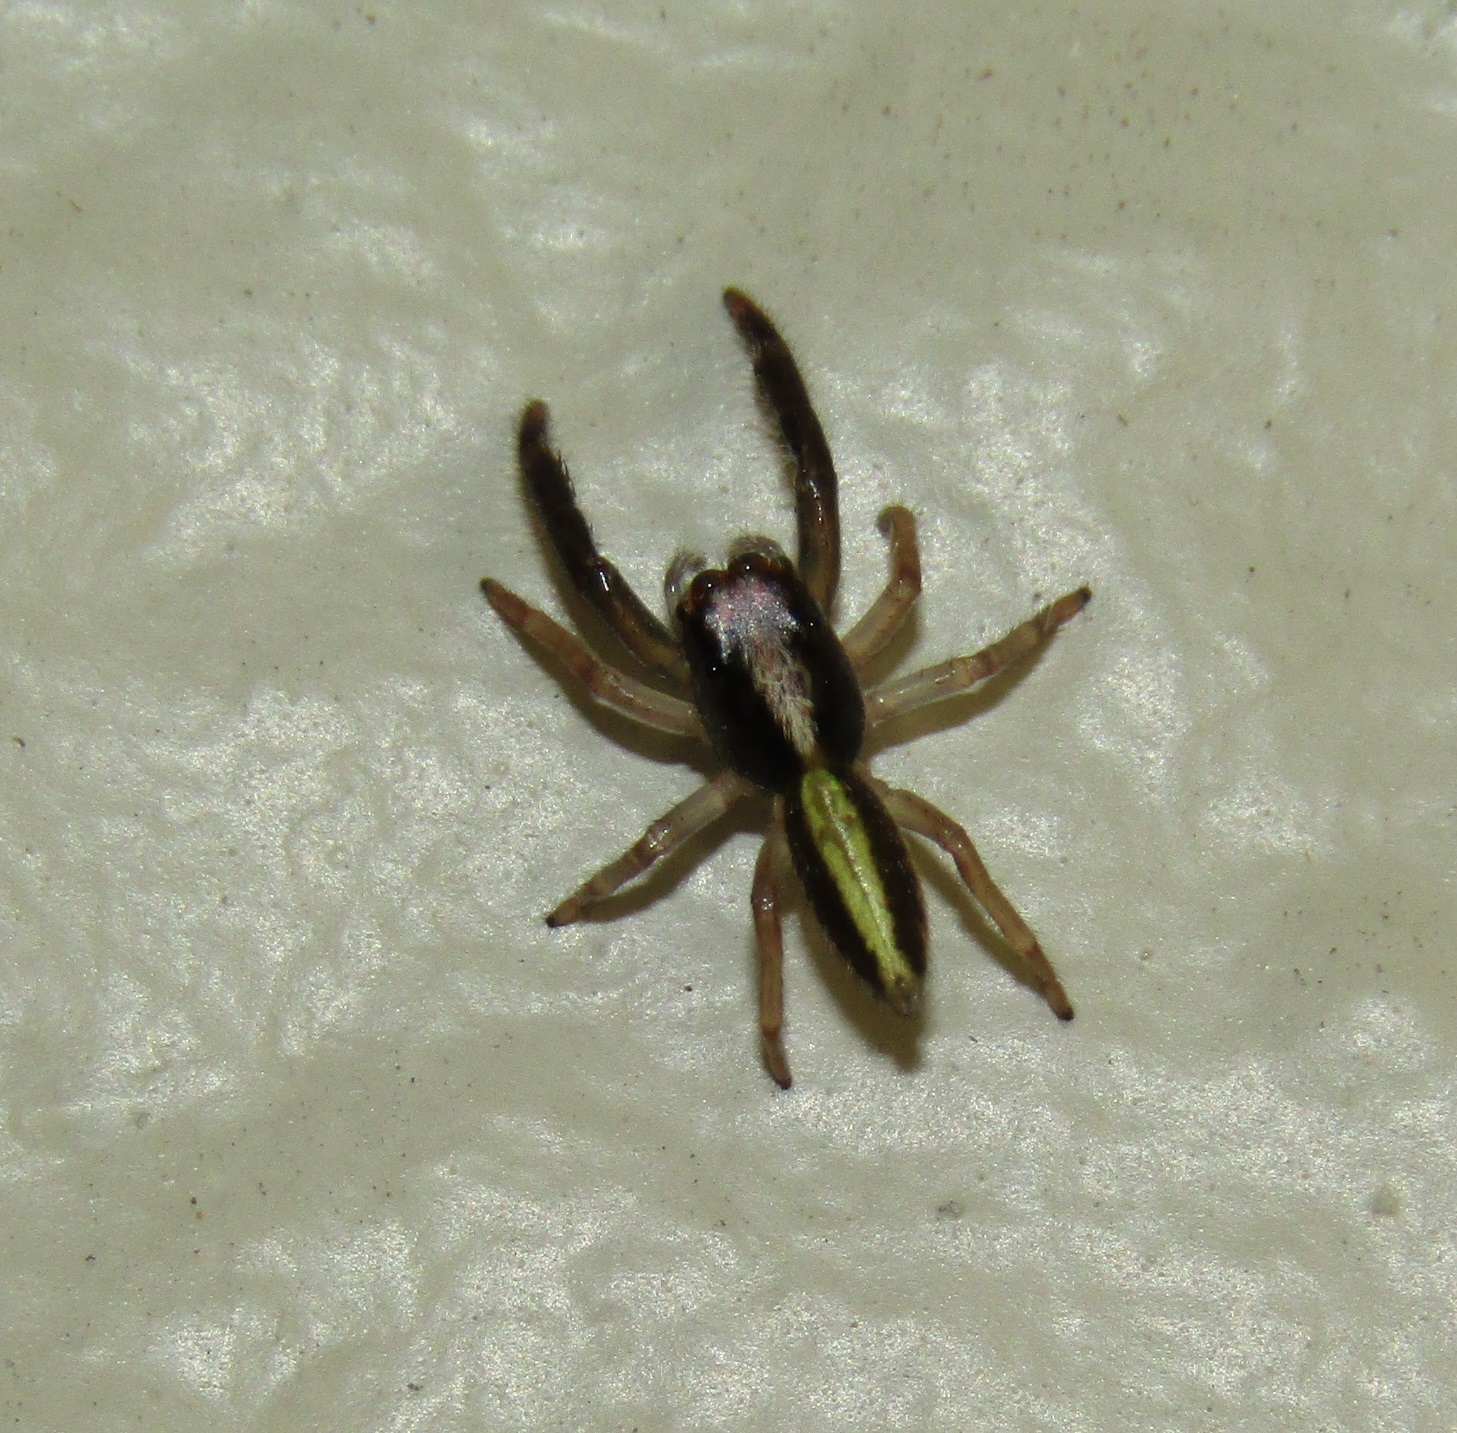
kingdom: Animalia
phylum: Arthropoda
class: Arachnida
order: Araneae
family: Salticidae
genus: Trite
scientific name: Trite planiceps
